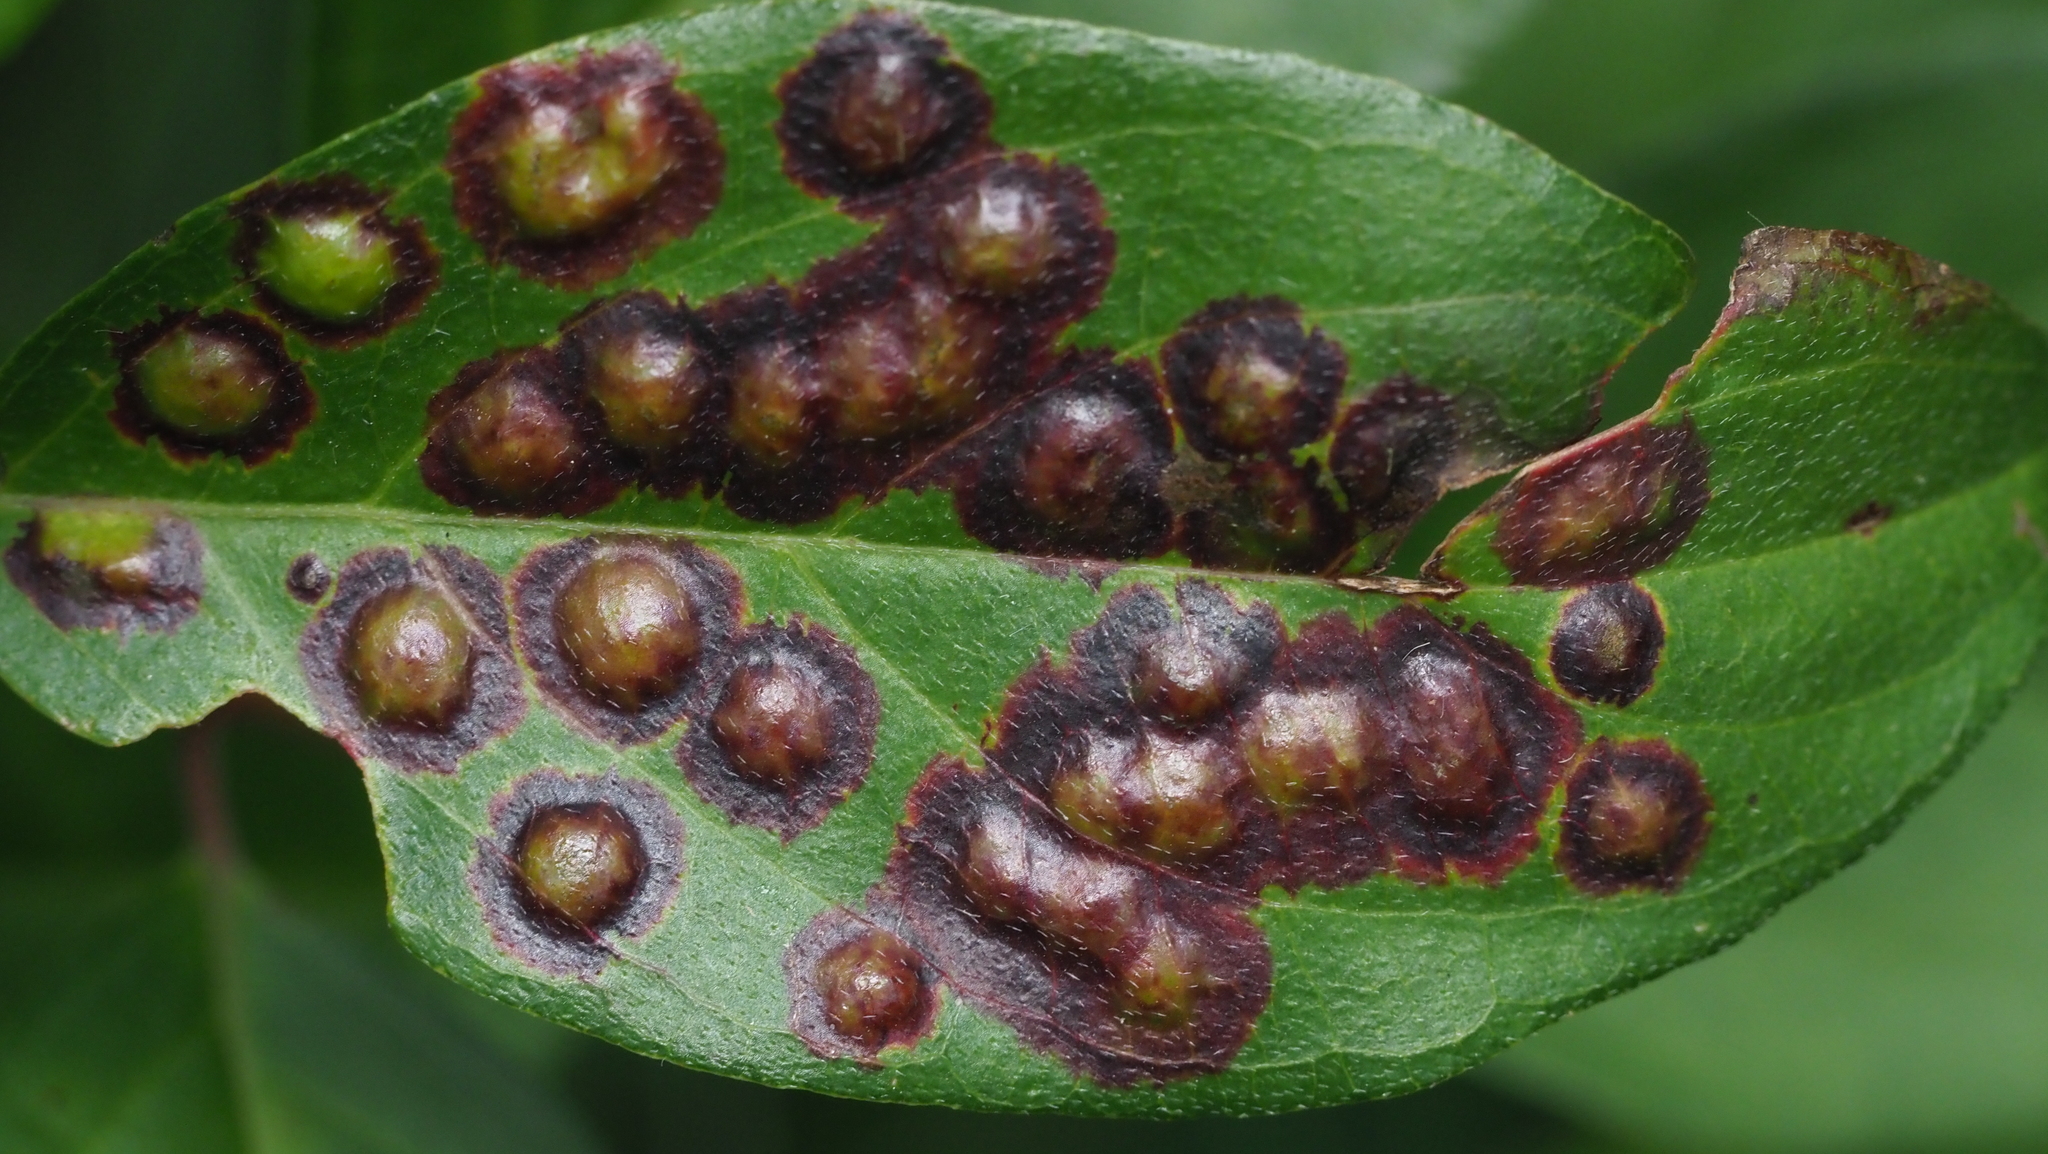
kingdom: Animalia
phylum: Arthropoda
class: Insecta
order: Diptera
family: Cecidomyiidae
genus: Parallelodiplosis
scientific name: Parallelodiplosis subtruncata
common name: Dogwood eyespot gall midge
